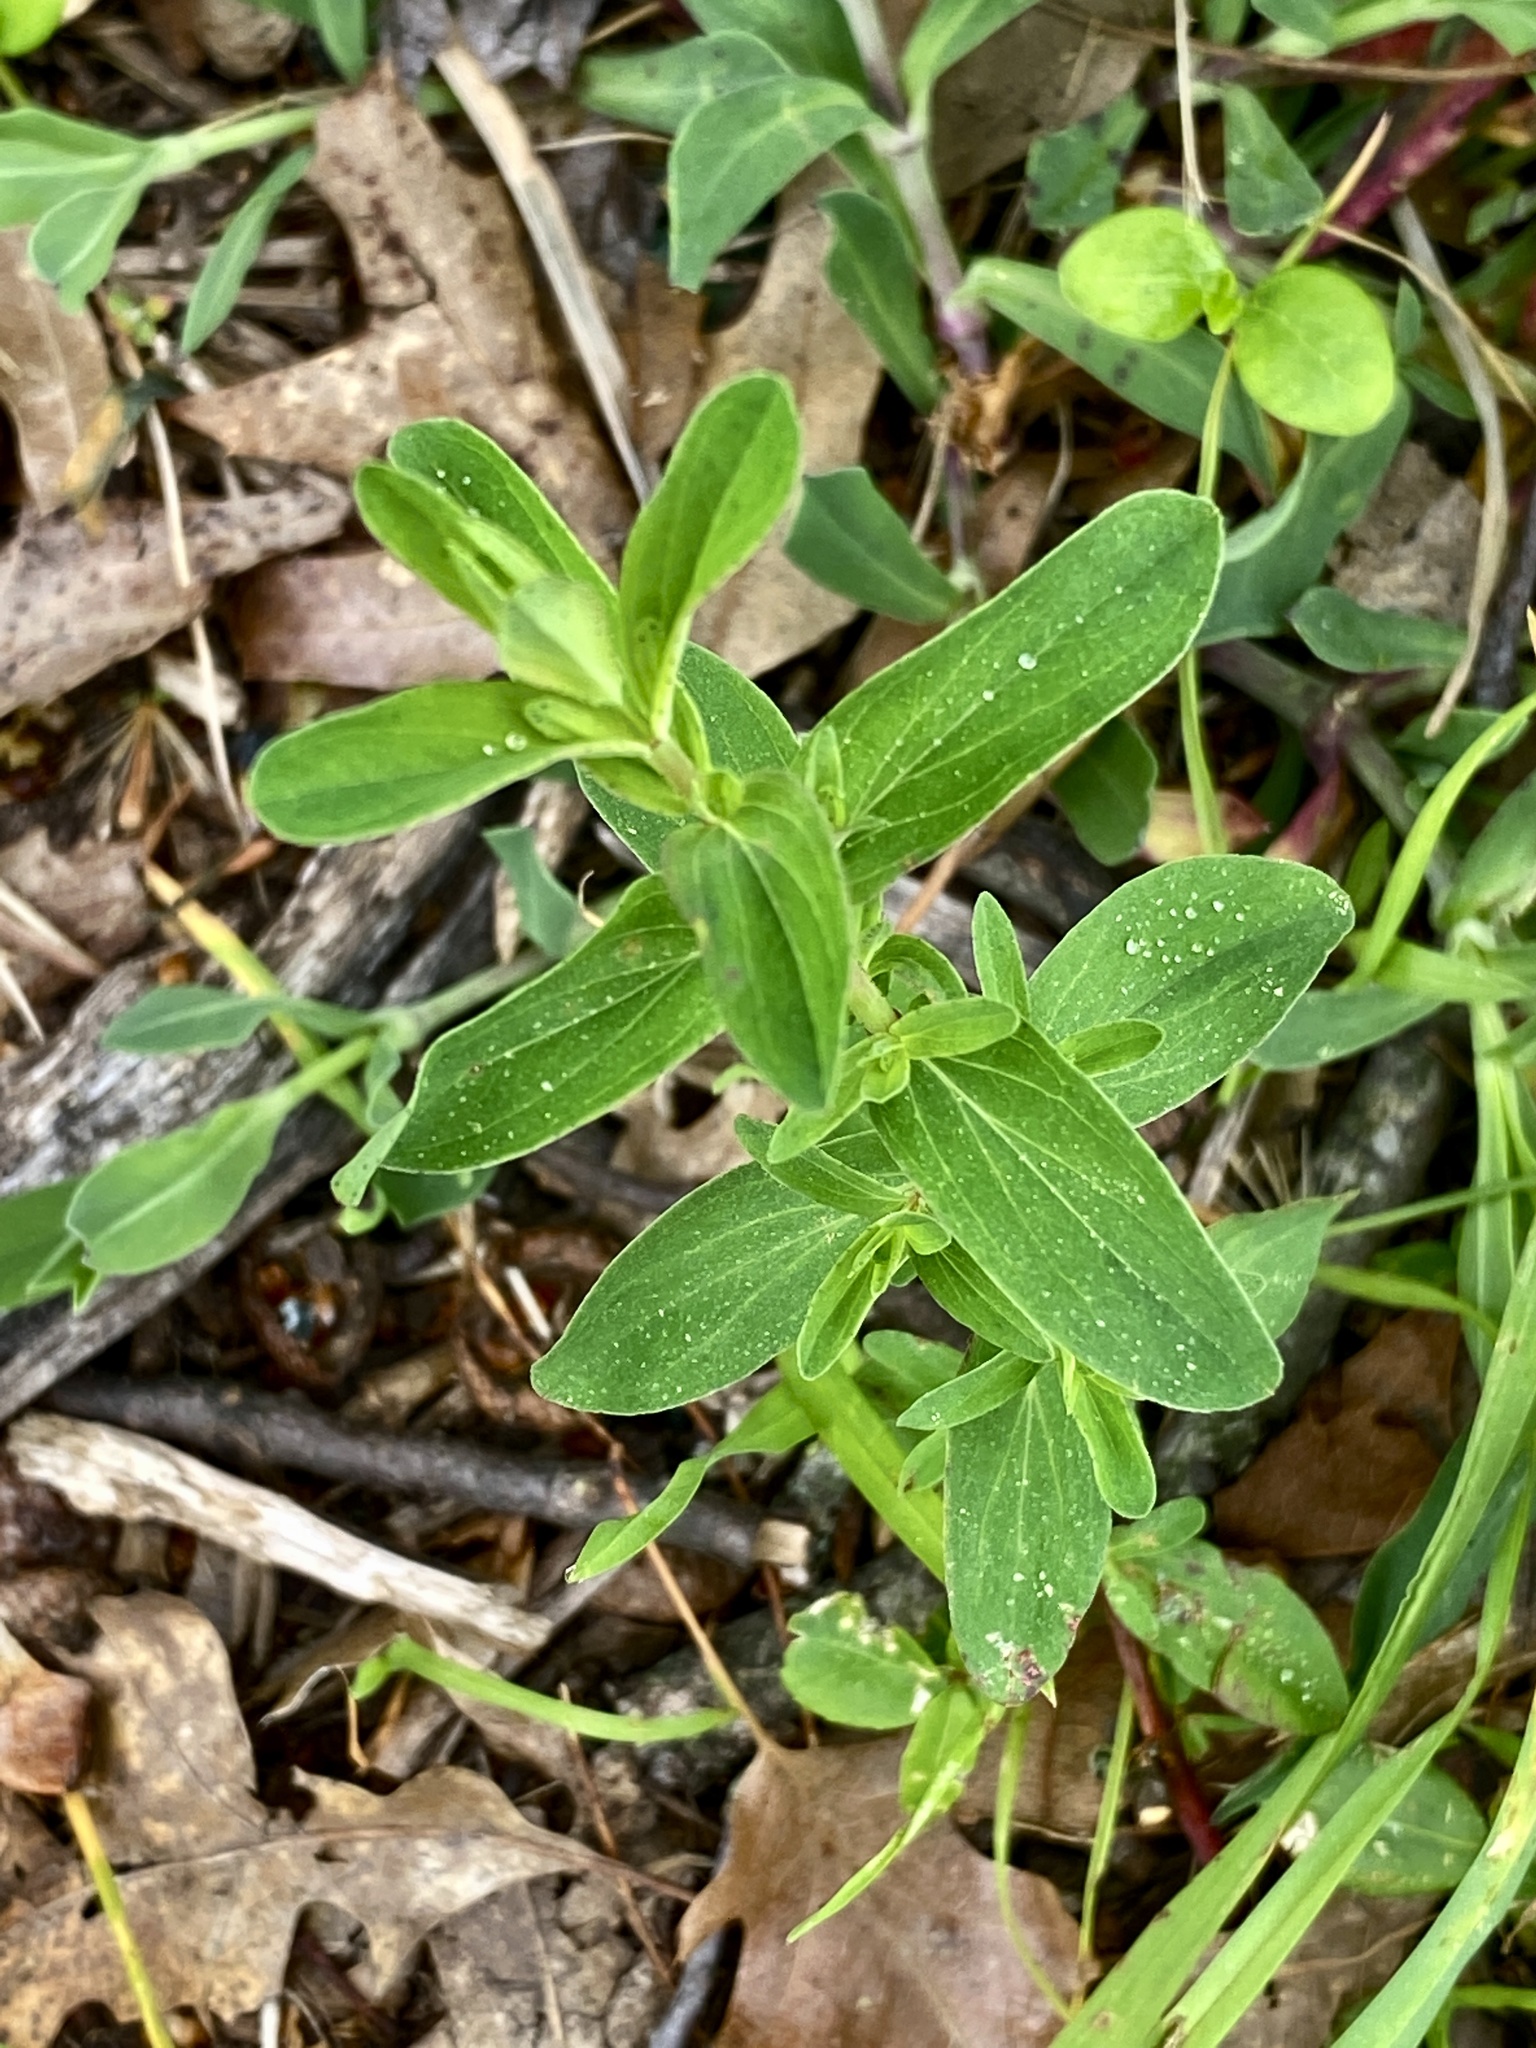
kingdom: Plantae
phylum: Tracheophyta
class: Magnoliopsida
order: Malpighiales
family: Hypericaceae
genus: Hypericum
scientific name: Hypericum perforatum
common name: Common st. johnswort
